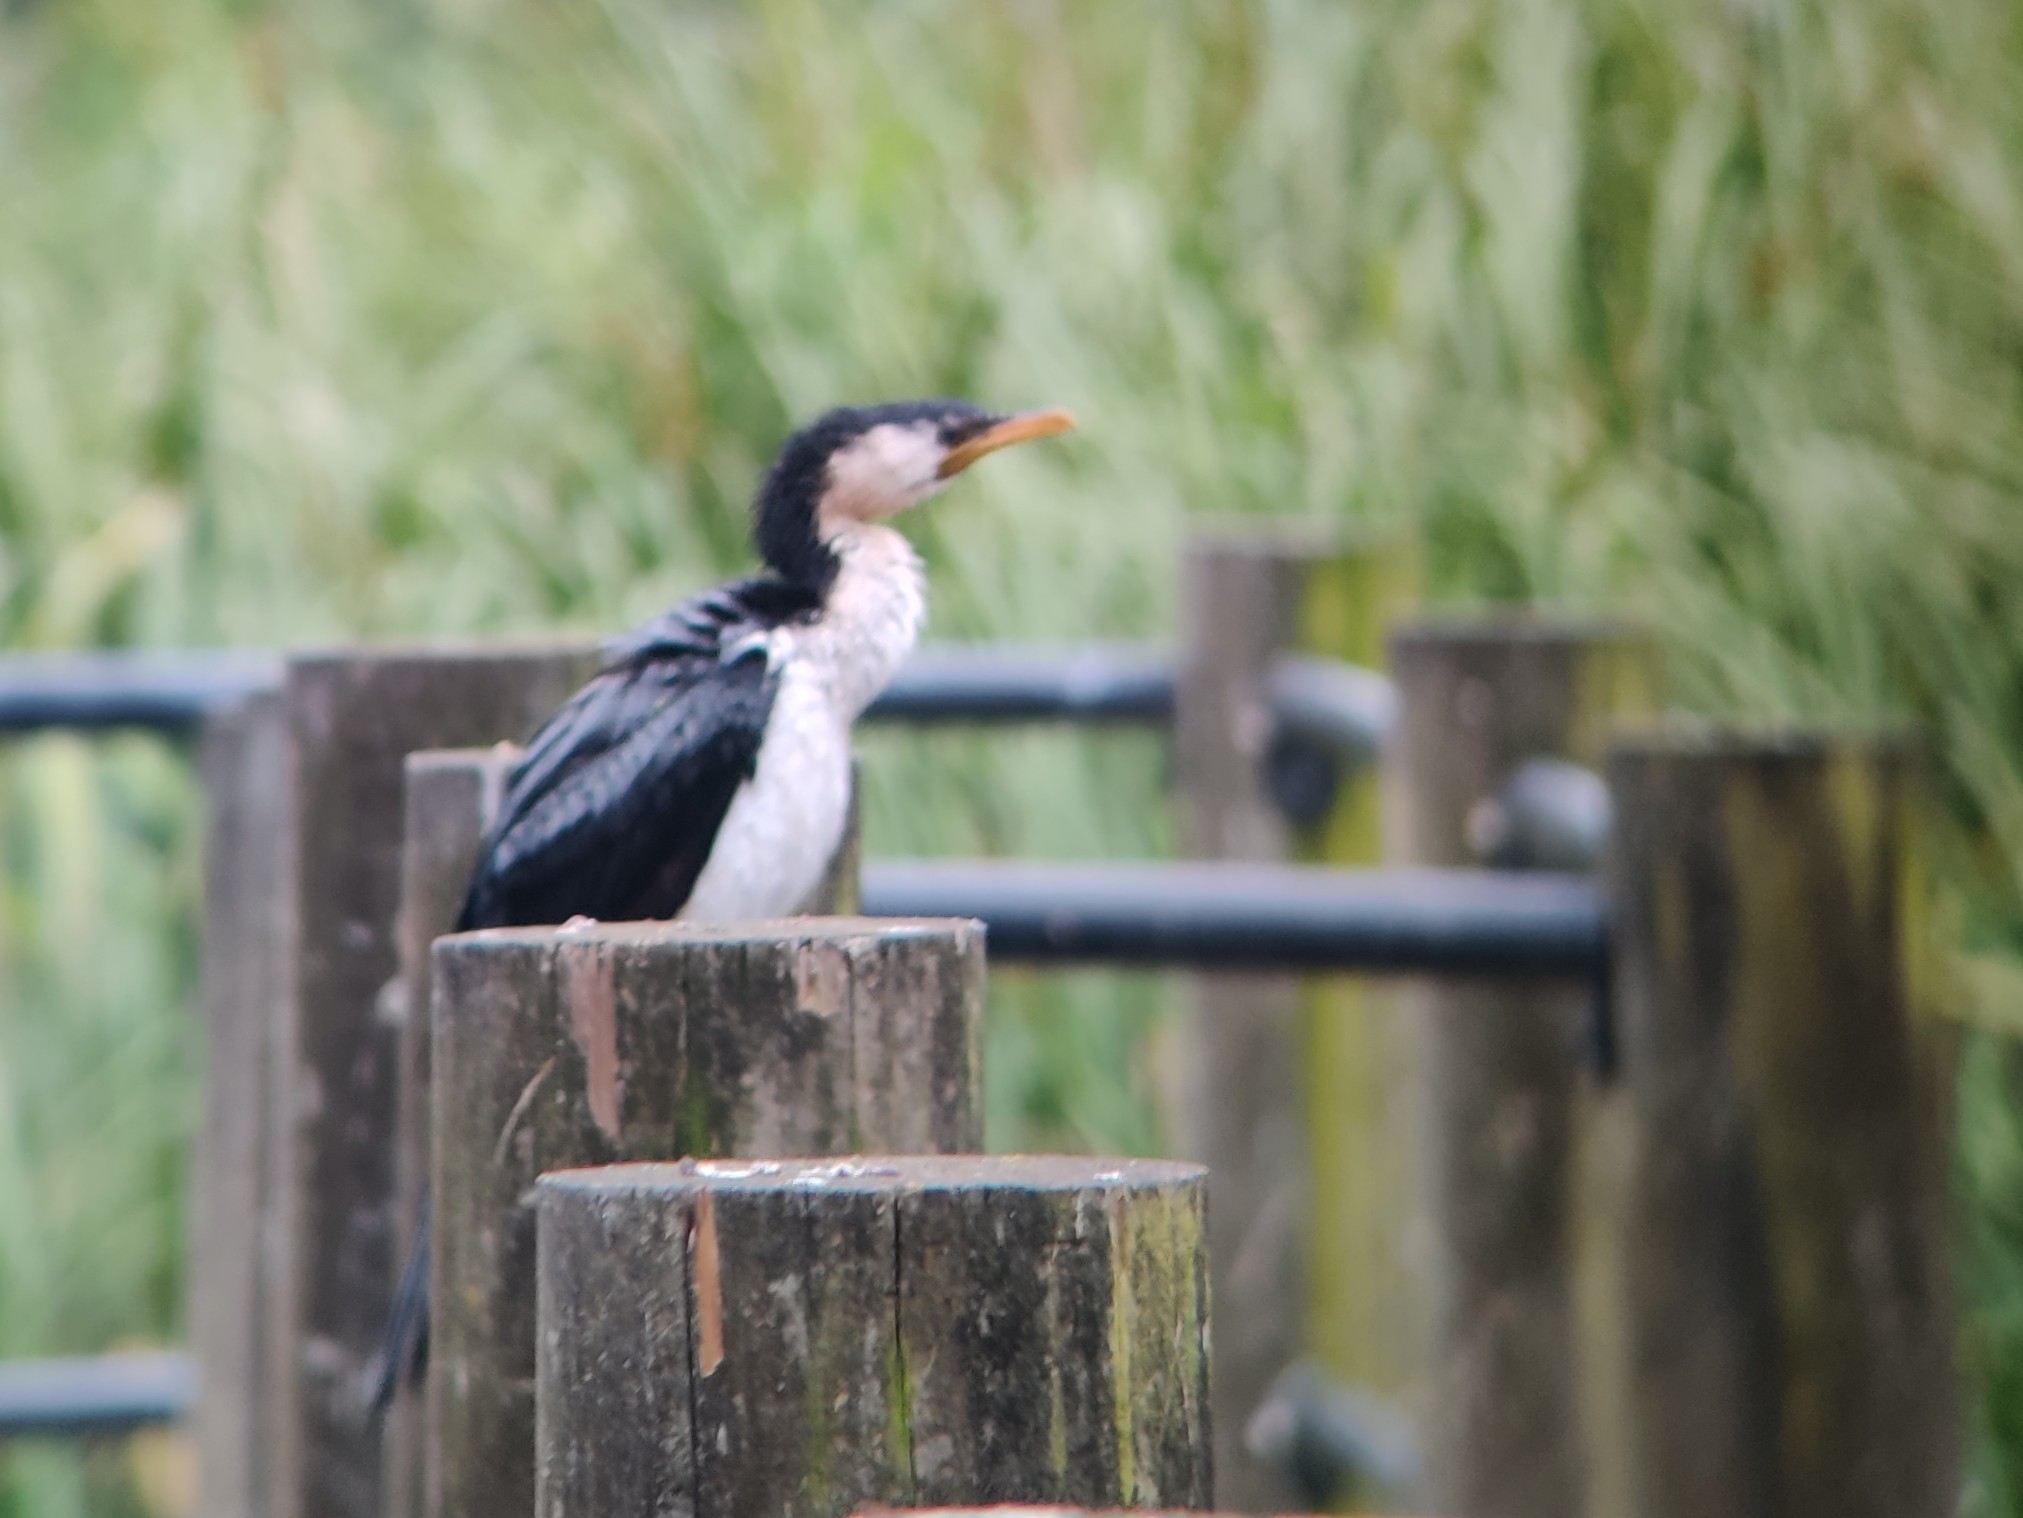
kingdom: Animalia
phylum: Chordata
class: Aves
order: Suliformes
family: Phalacrocoracidae
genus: Microcarbo
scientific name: Microcarbo melanoleucos
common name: Little pied cormorant
